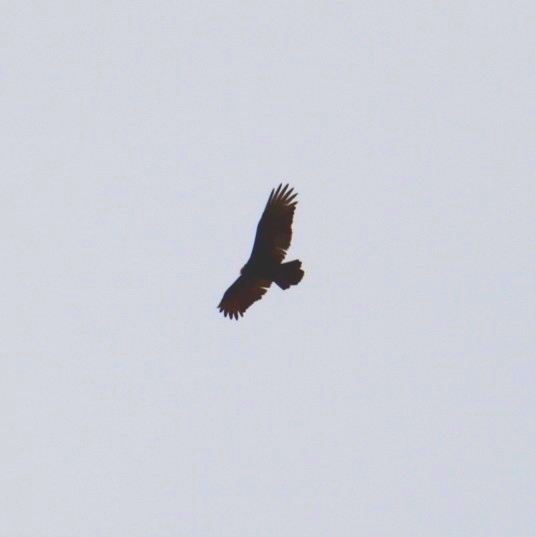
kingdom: Animalia
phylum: Chordata
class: Aves
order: Accipitriformes
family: Cathartidae
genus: Cathartes
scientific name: Cathartes aura
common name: Turkey vulture
